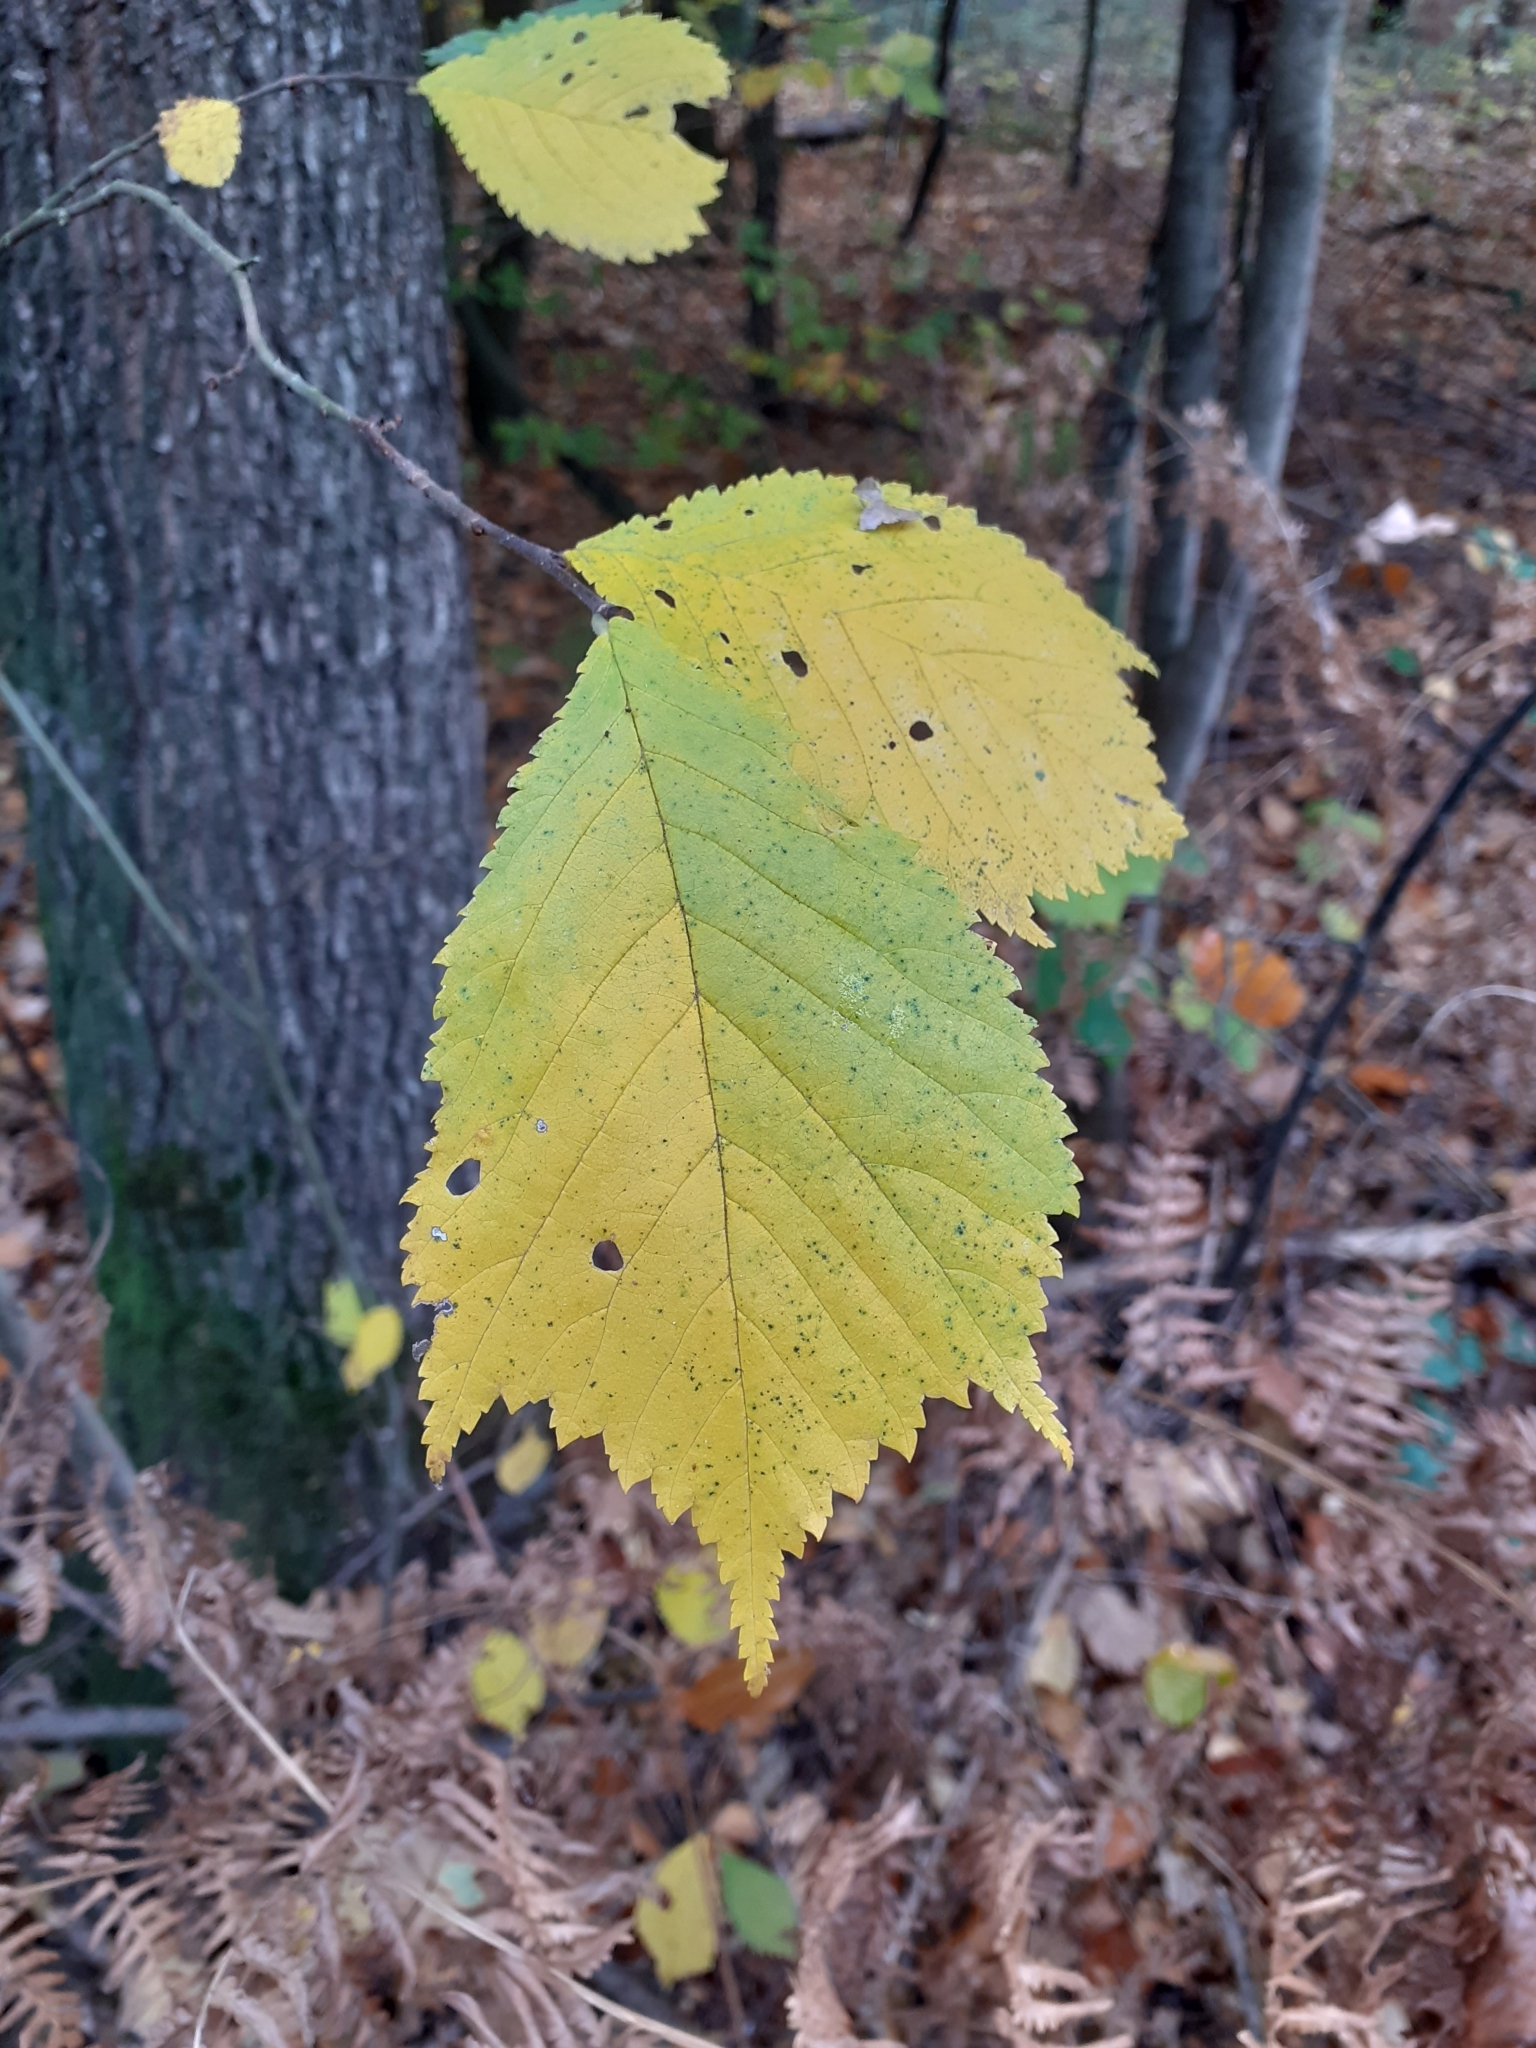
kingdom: Plantae
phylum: Tracheophyta
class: Magnoliopsida
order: Rosales
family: Ulmaceae
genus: Ulmus
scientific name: Ulmus glabra
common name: Wych elm
